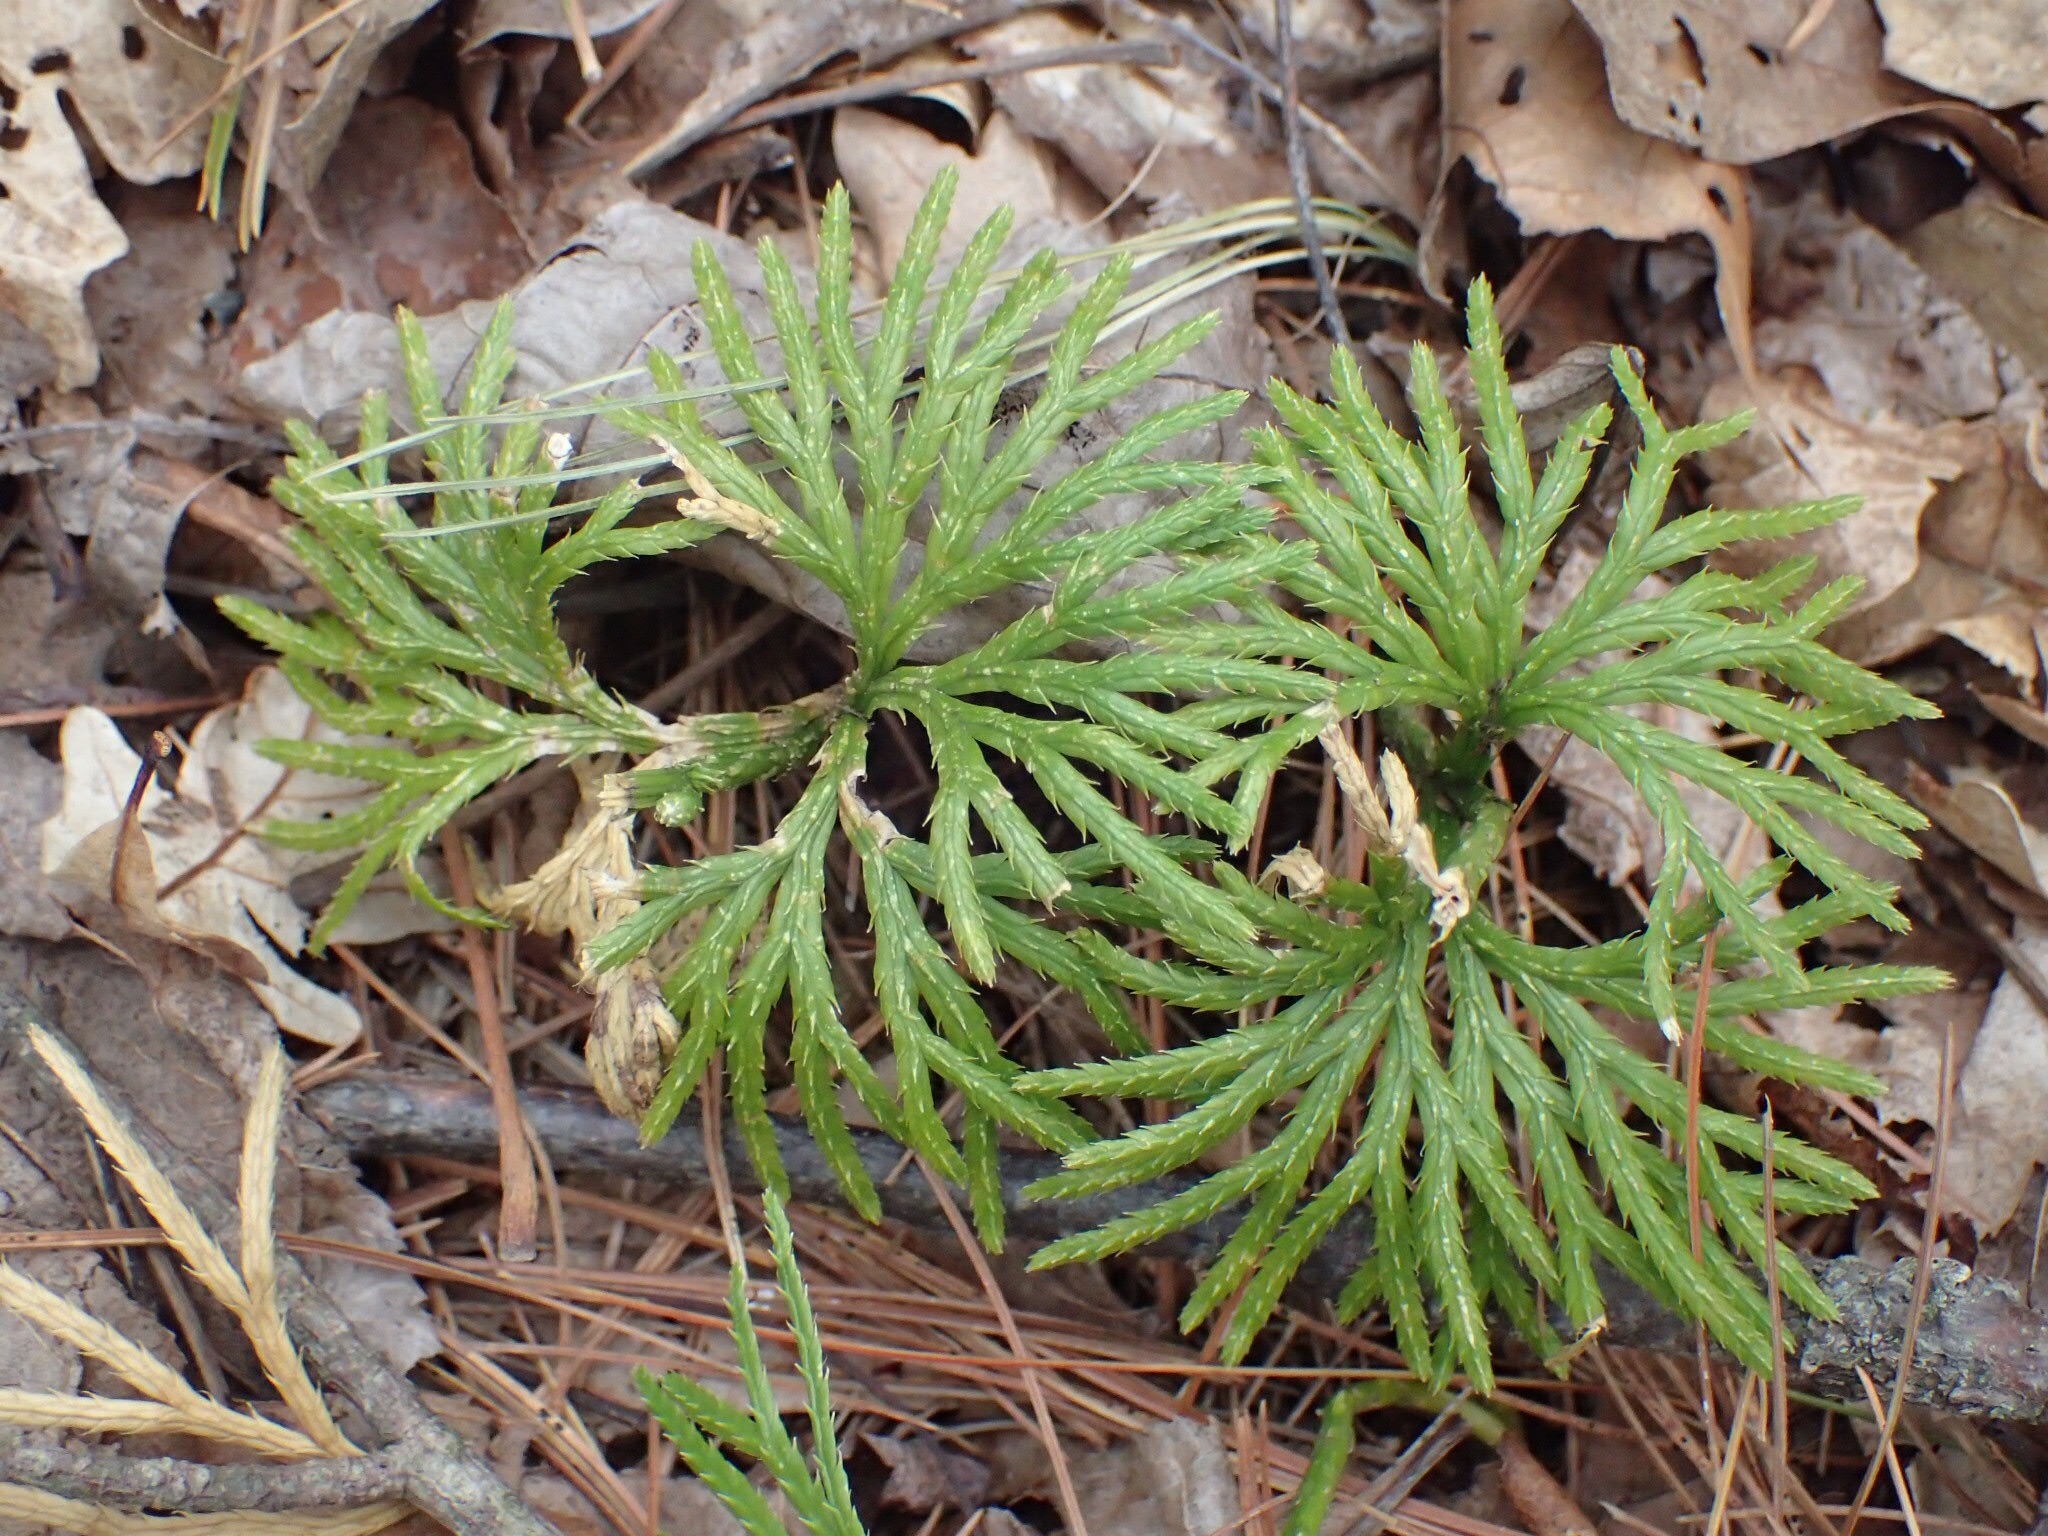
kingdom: Plantae
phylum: Tracheophyta
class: Lycopodiopsida
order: Lycopodiales
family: Lycopodiaceae
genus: Diphasiastrum
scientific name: Diphasiastrum digitatum
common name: Southern running-pine
